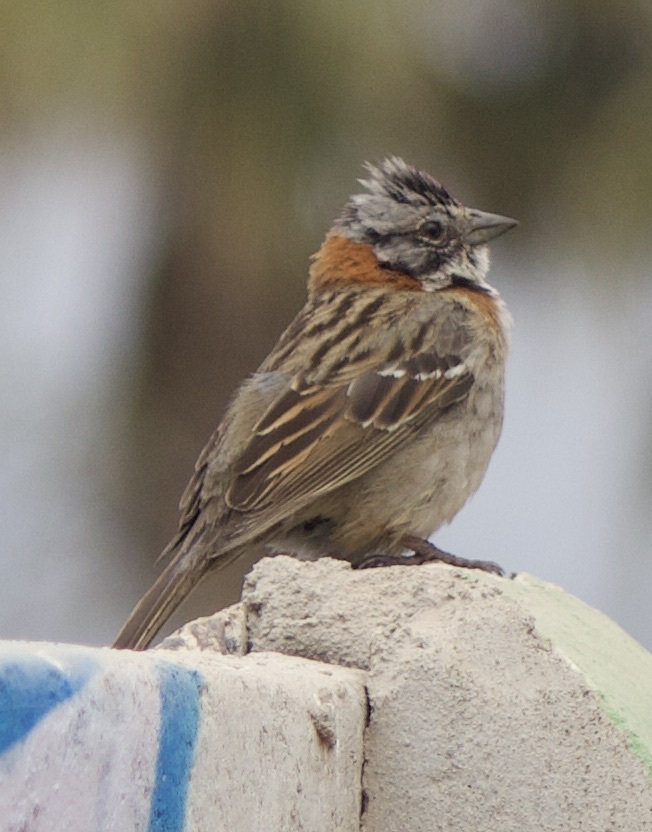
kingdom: Animalia
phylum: Chordata
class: Aves
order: Passeriformes
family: Passerellidae
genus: Zonotrichia
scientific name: Zonotrichia capensis
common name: Rufous-collared sparrow
